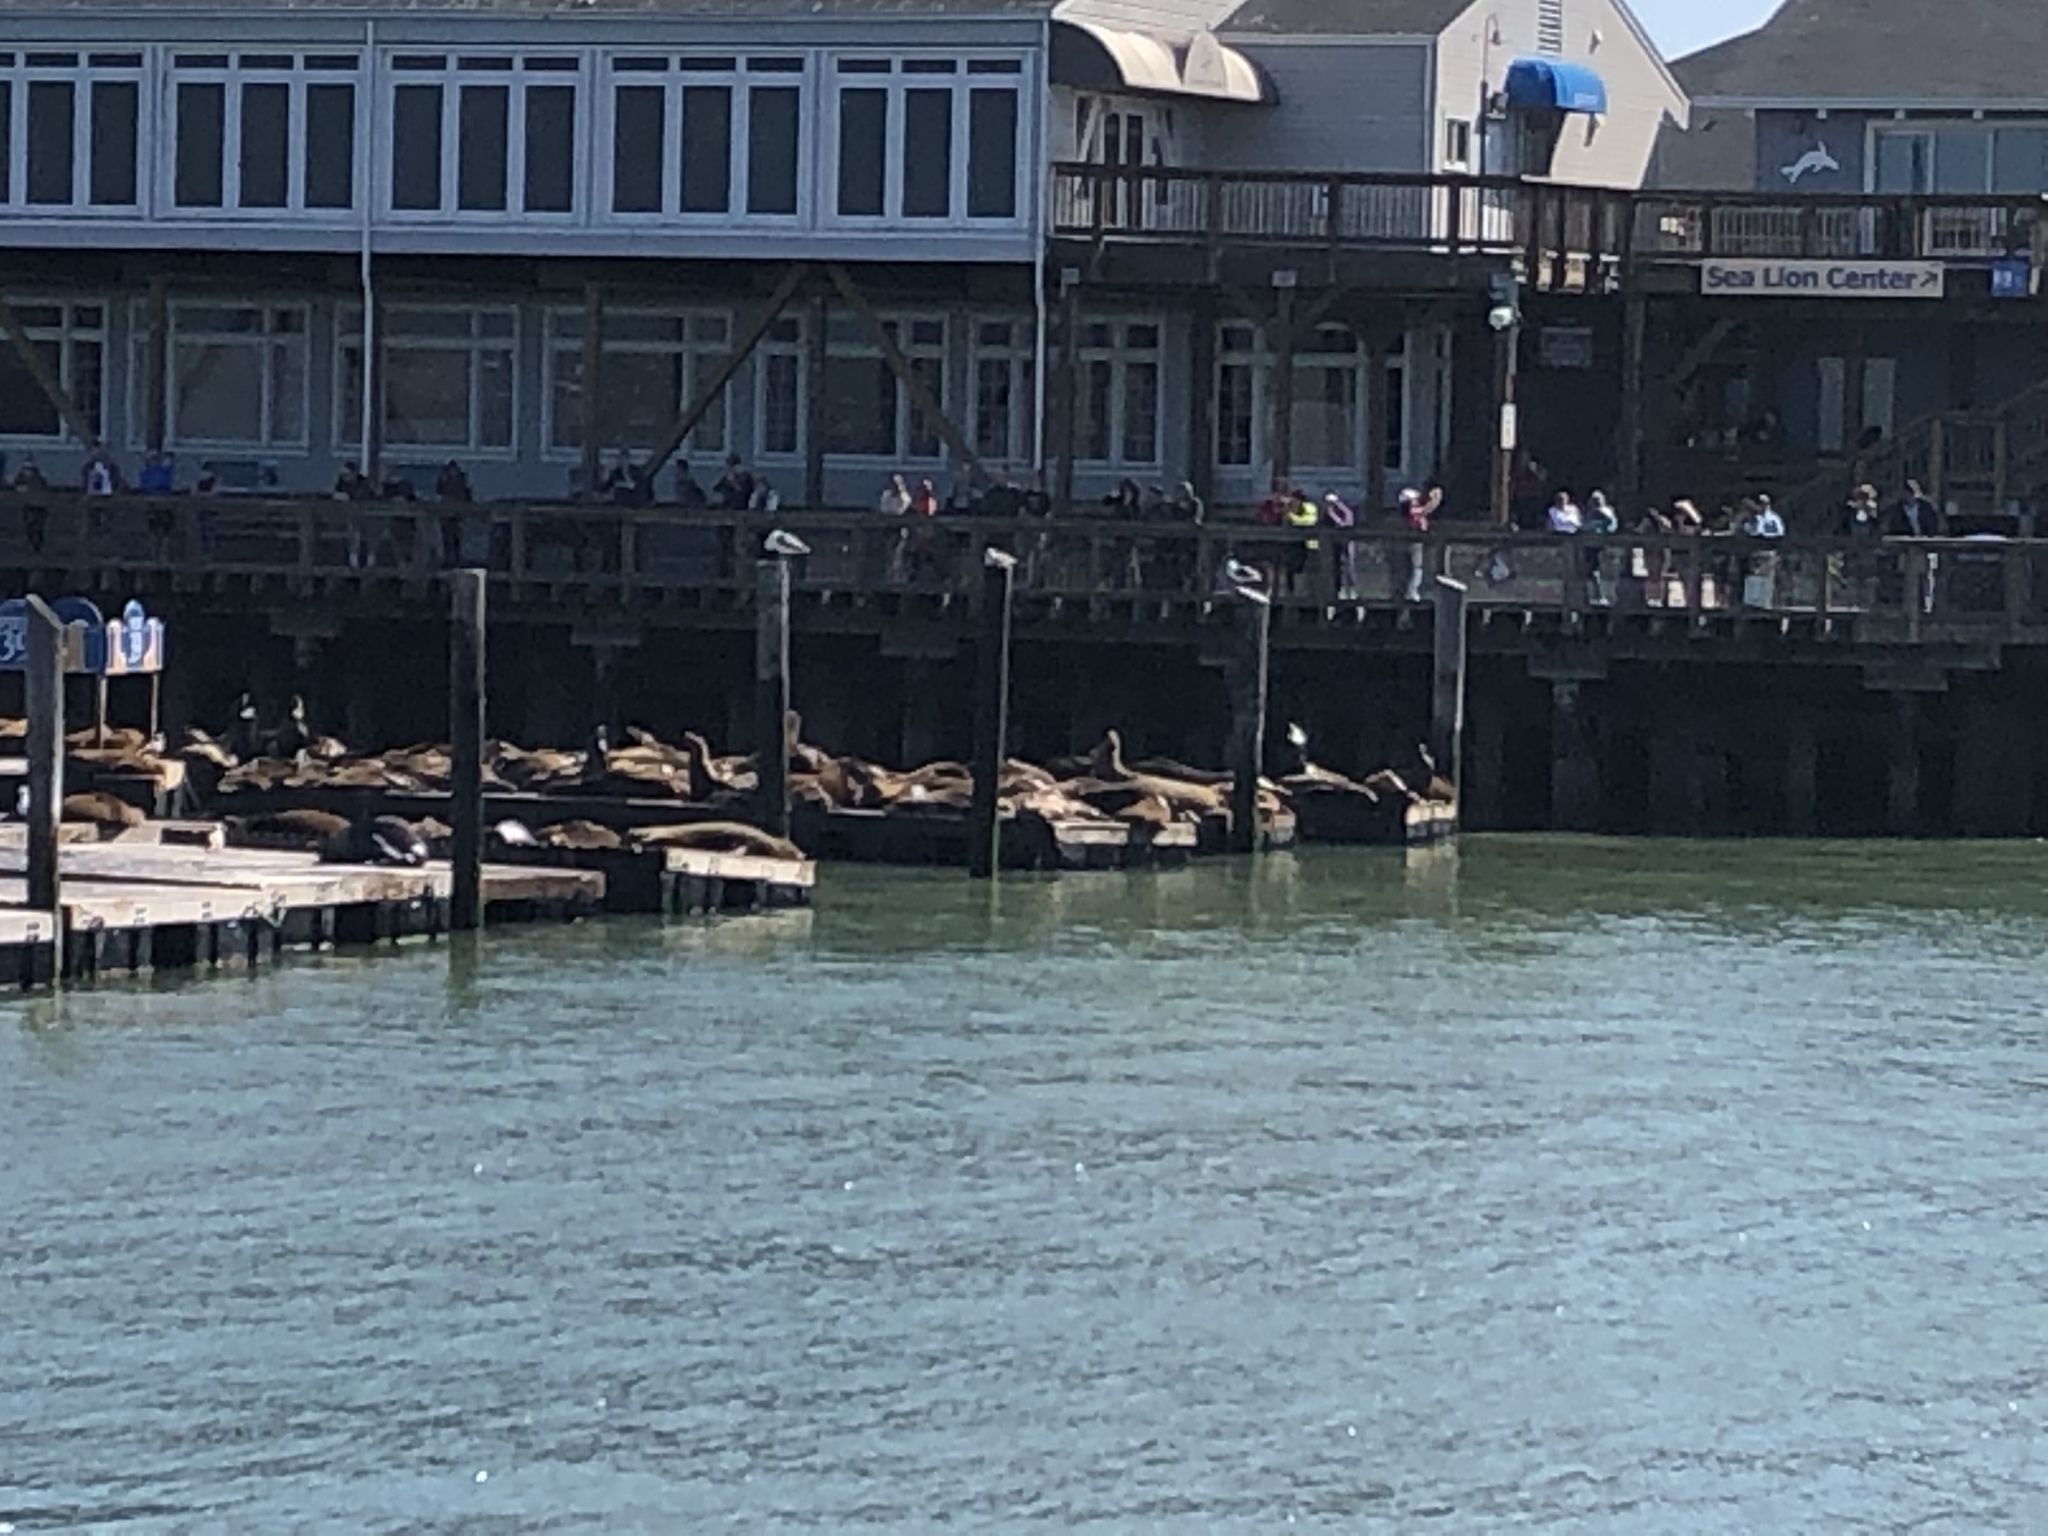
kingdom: Animalia
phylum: Chordata
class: Mammalia
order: Carnivora
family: Otariidae
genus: Zalophus
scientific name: Zalophus californianus
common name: California sea lion
